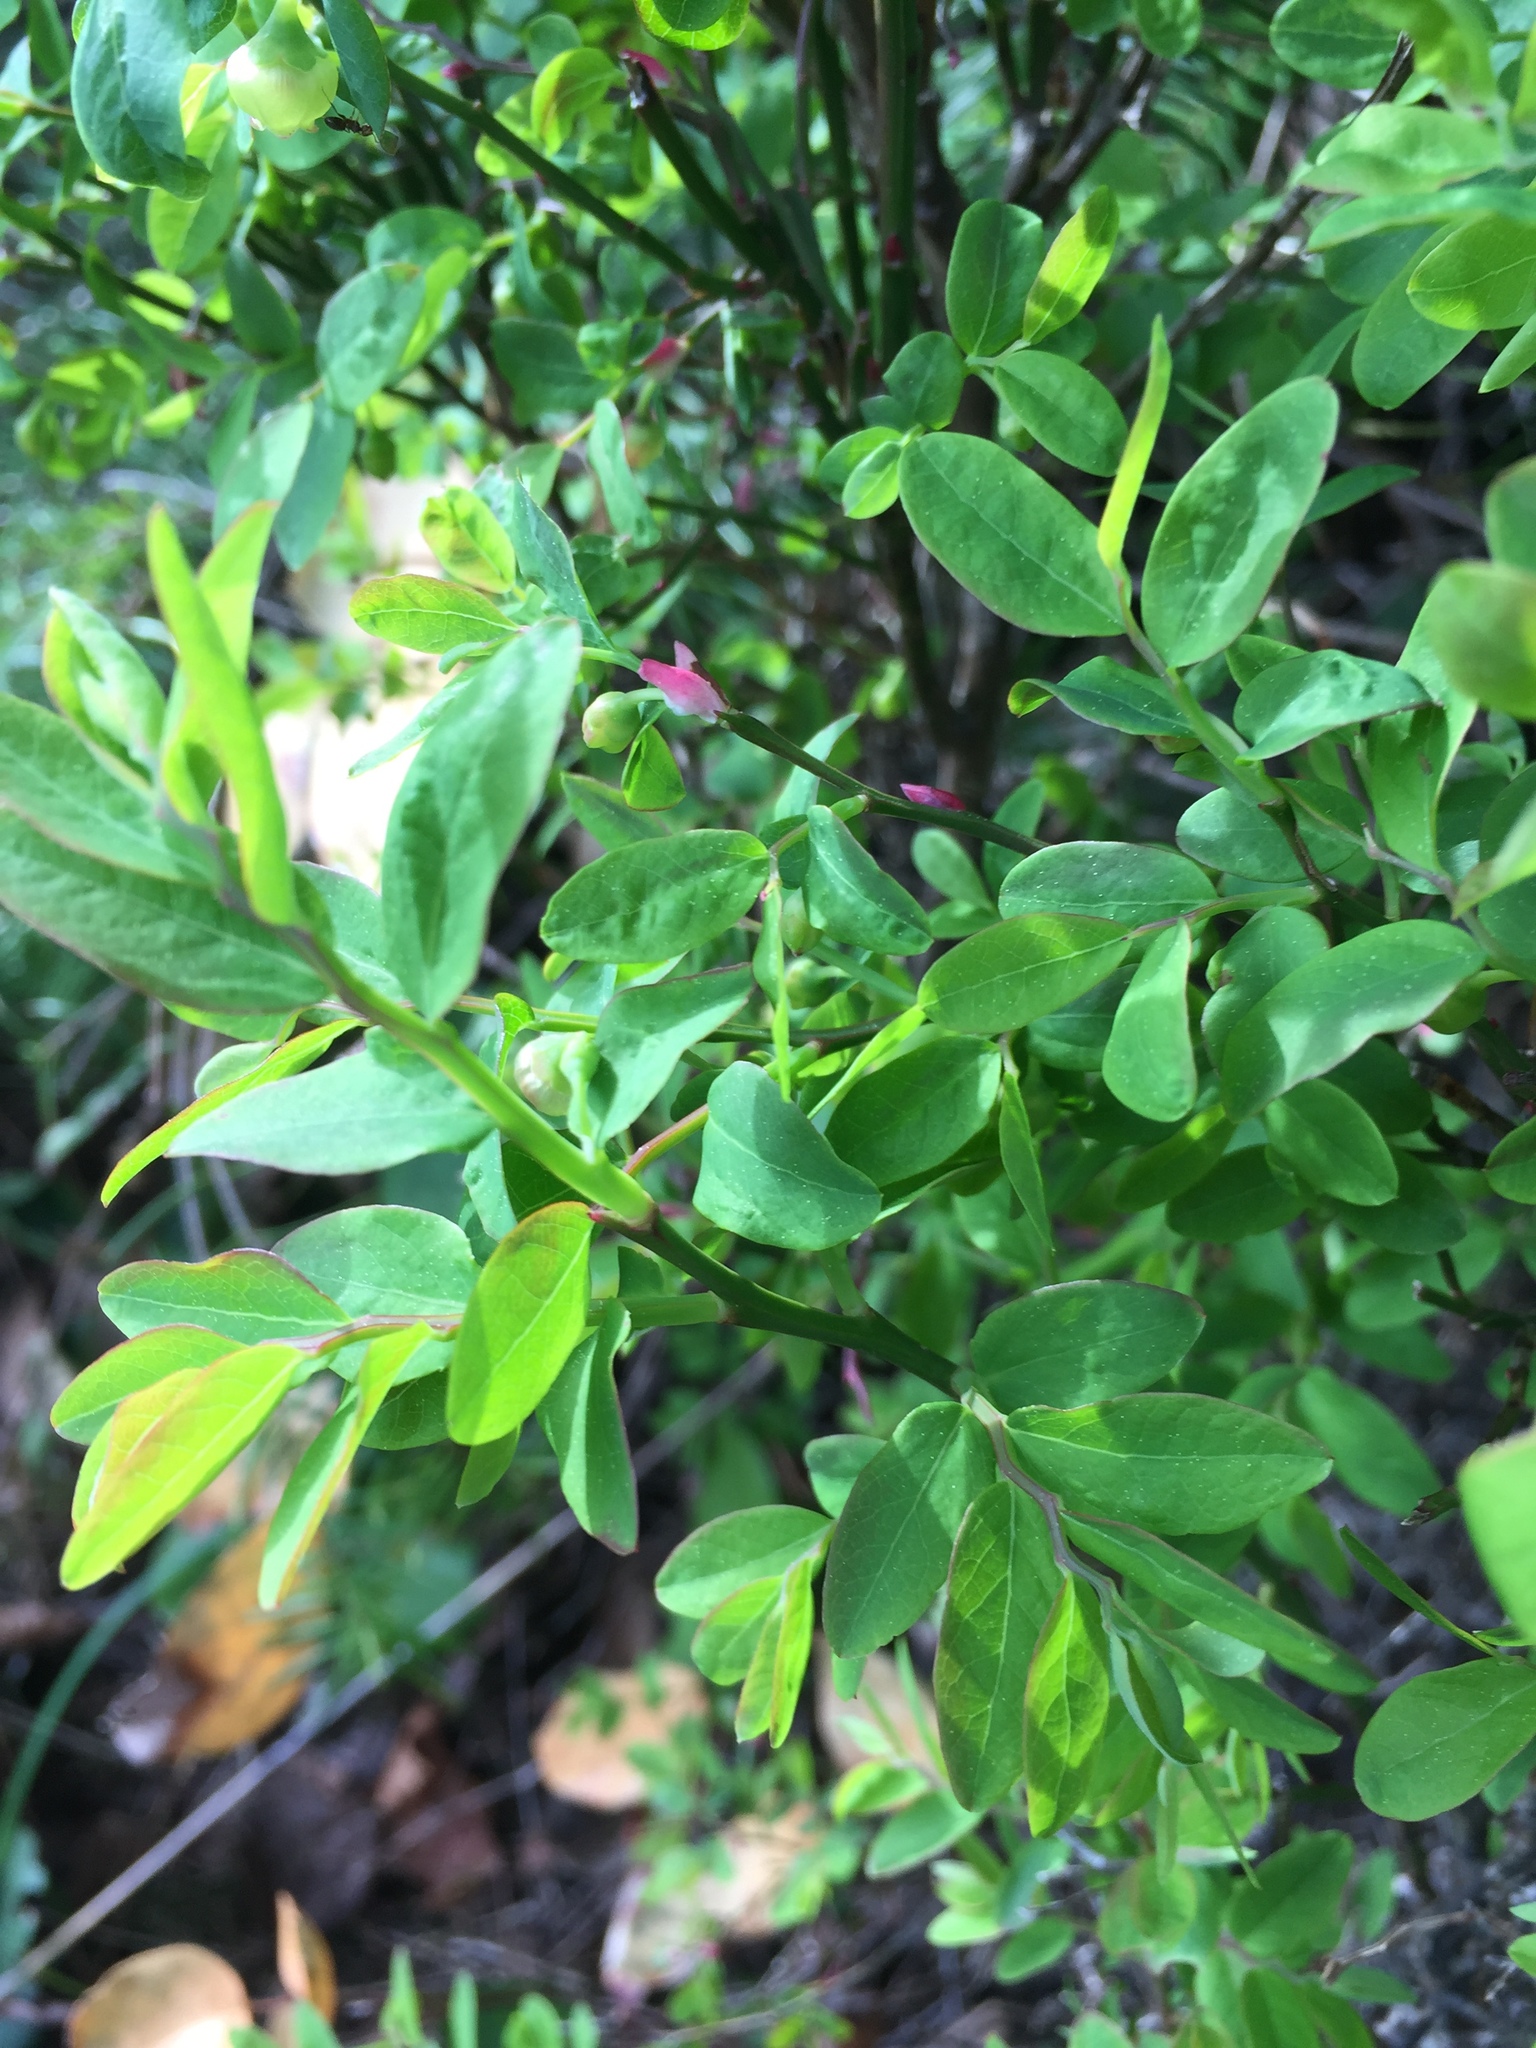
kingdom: Plantae
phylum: Tracheophyta
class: Magnoliopsida
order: Ericales
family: Ericaceae
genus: Vaccinium
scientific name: Vaccinium parvifolium
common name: Red-huckleberry
